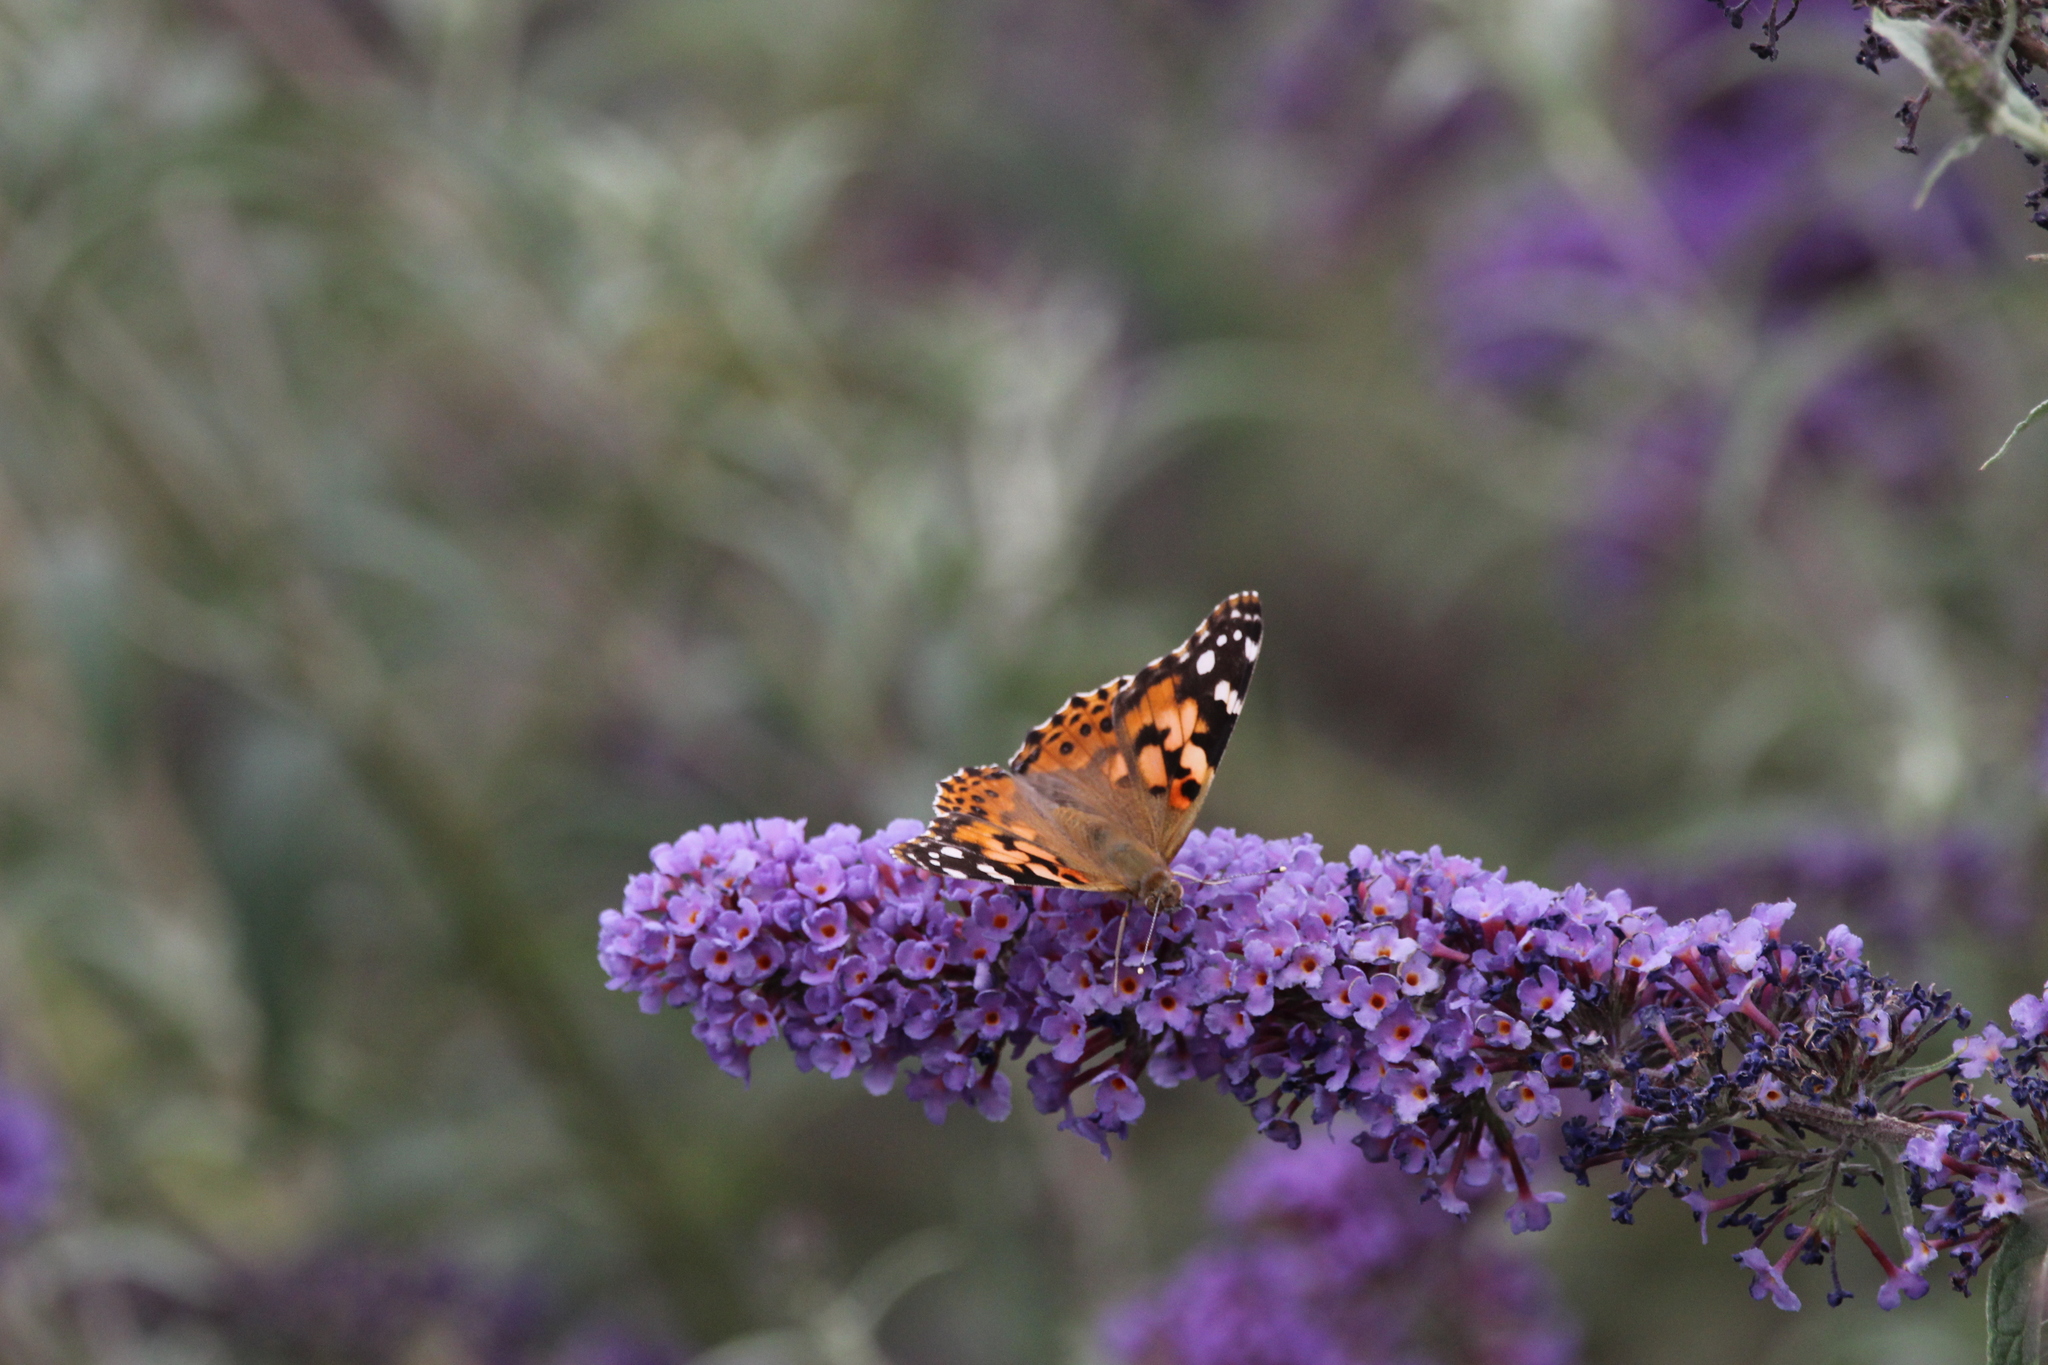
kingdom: Animalia
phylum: Arthropoda
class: Insecta
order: Lepidoptera
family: Nymphalidae
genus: Vanessa
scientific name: Vanessa cardui
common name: Painted lady
